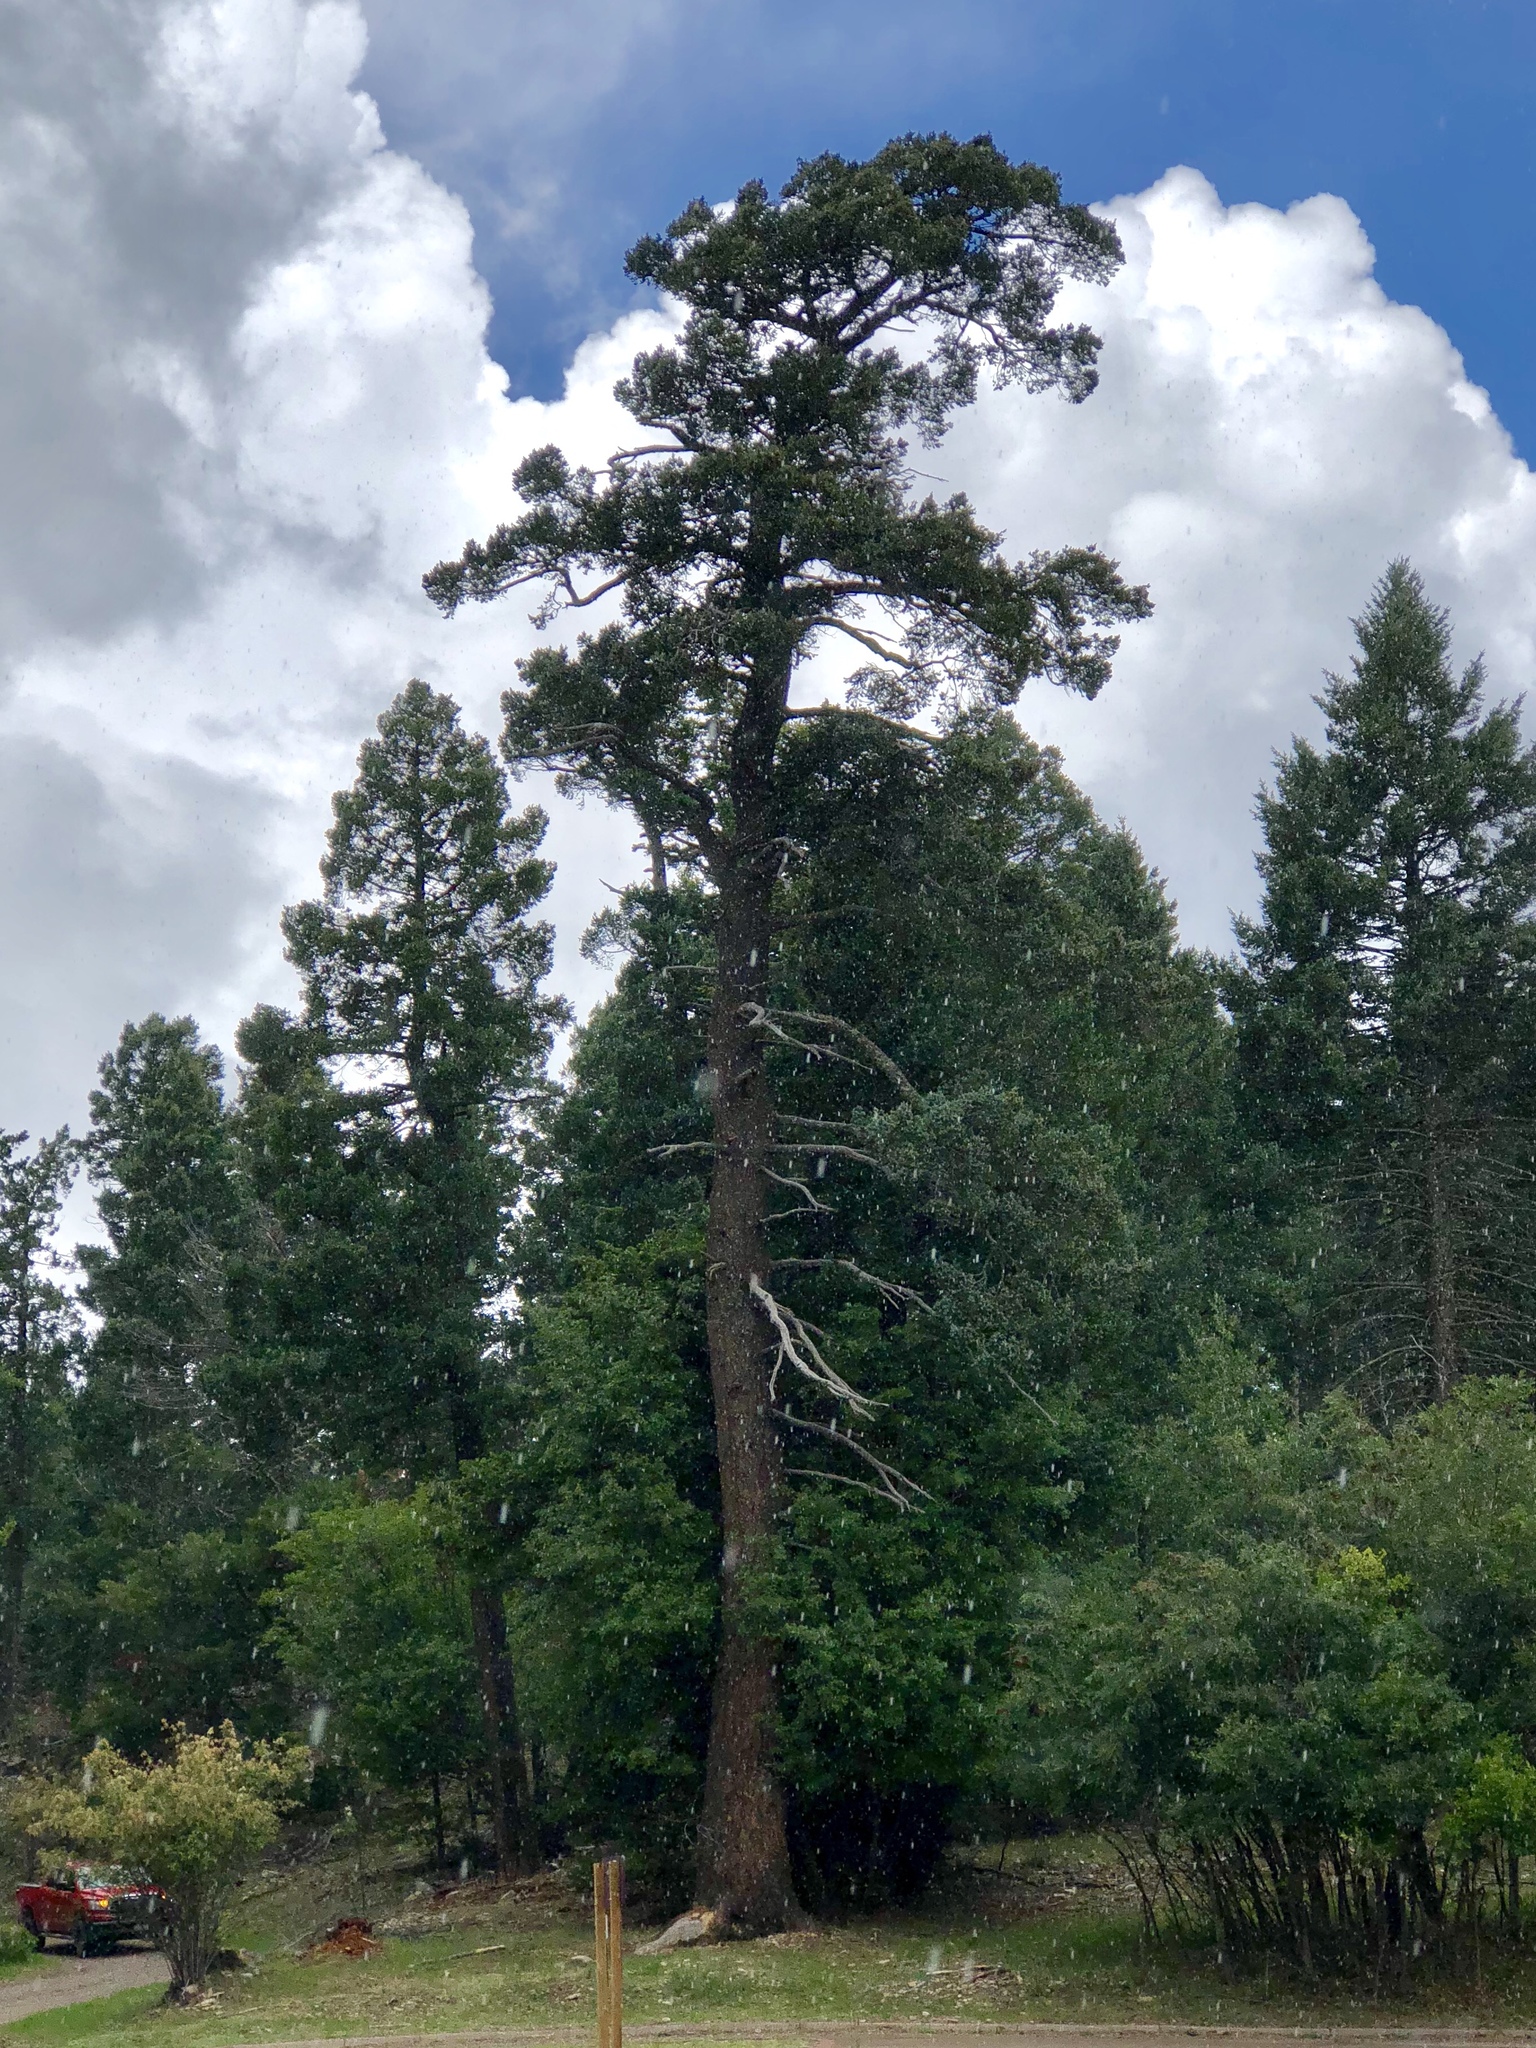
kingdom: Plantae
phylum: Tracheophyta
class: Pinopsida
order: Pinales
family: Pinaceae
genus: Pseudotsuga
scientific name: Pseudotsuga menziesii
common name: Douglas fir
